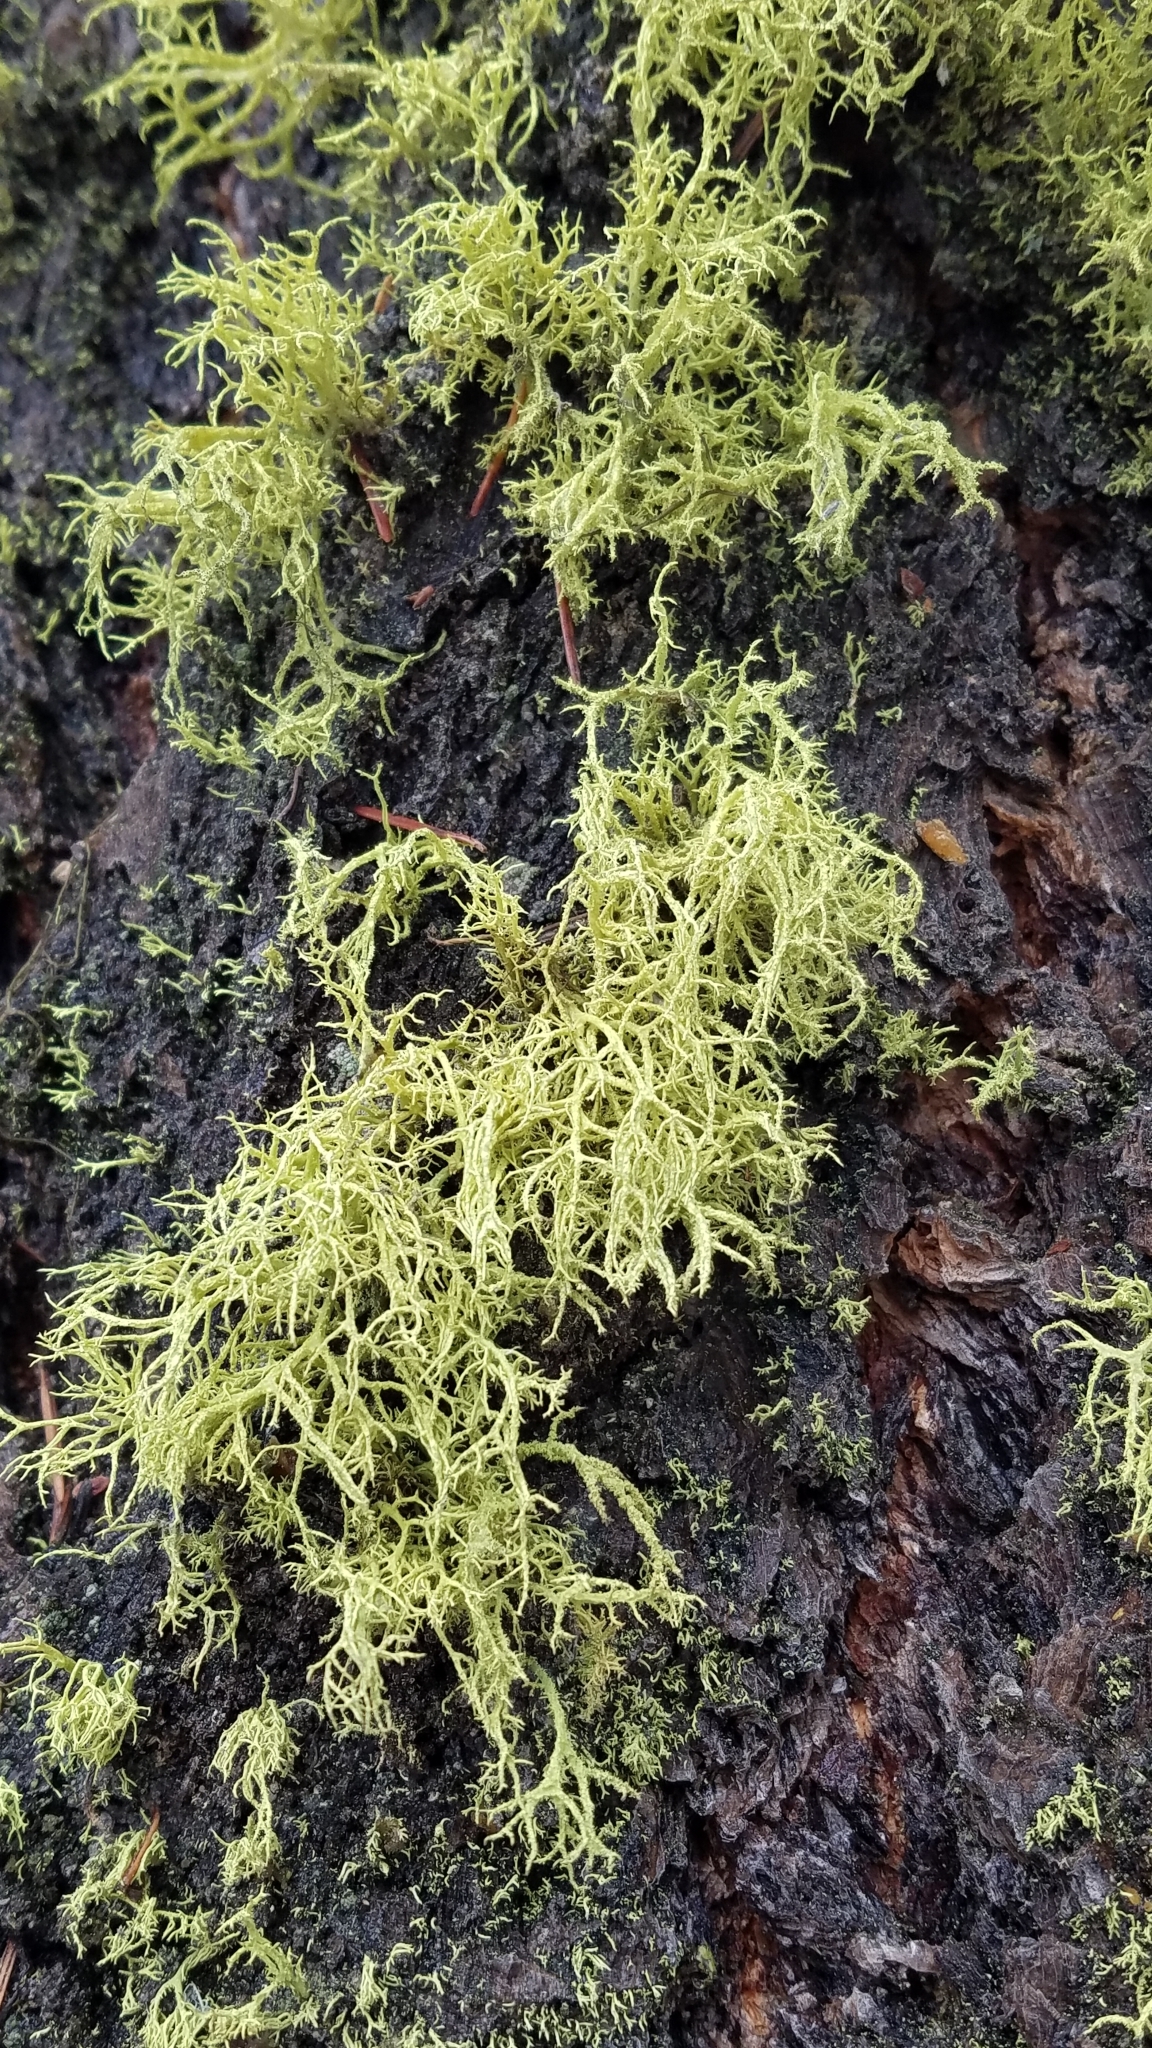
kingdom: Fungi
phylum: Ascomycota
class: Lecanoromycetes
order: Lecanorales
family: Parmeliaceae
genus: Letharia
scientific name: Letharia vulpina
